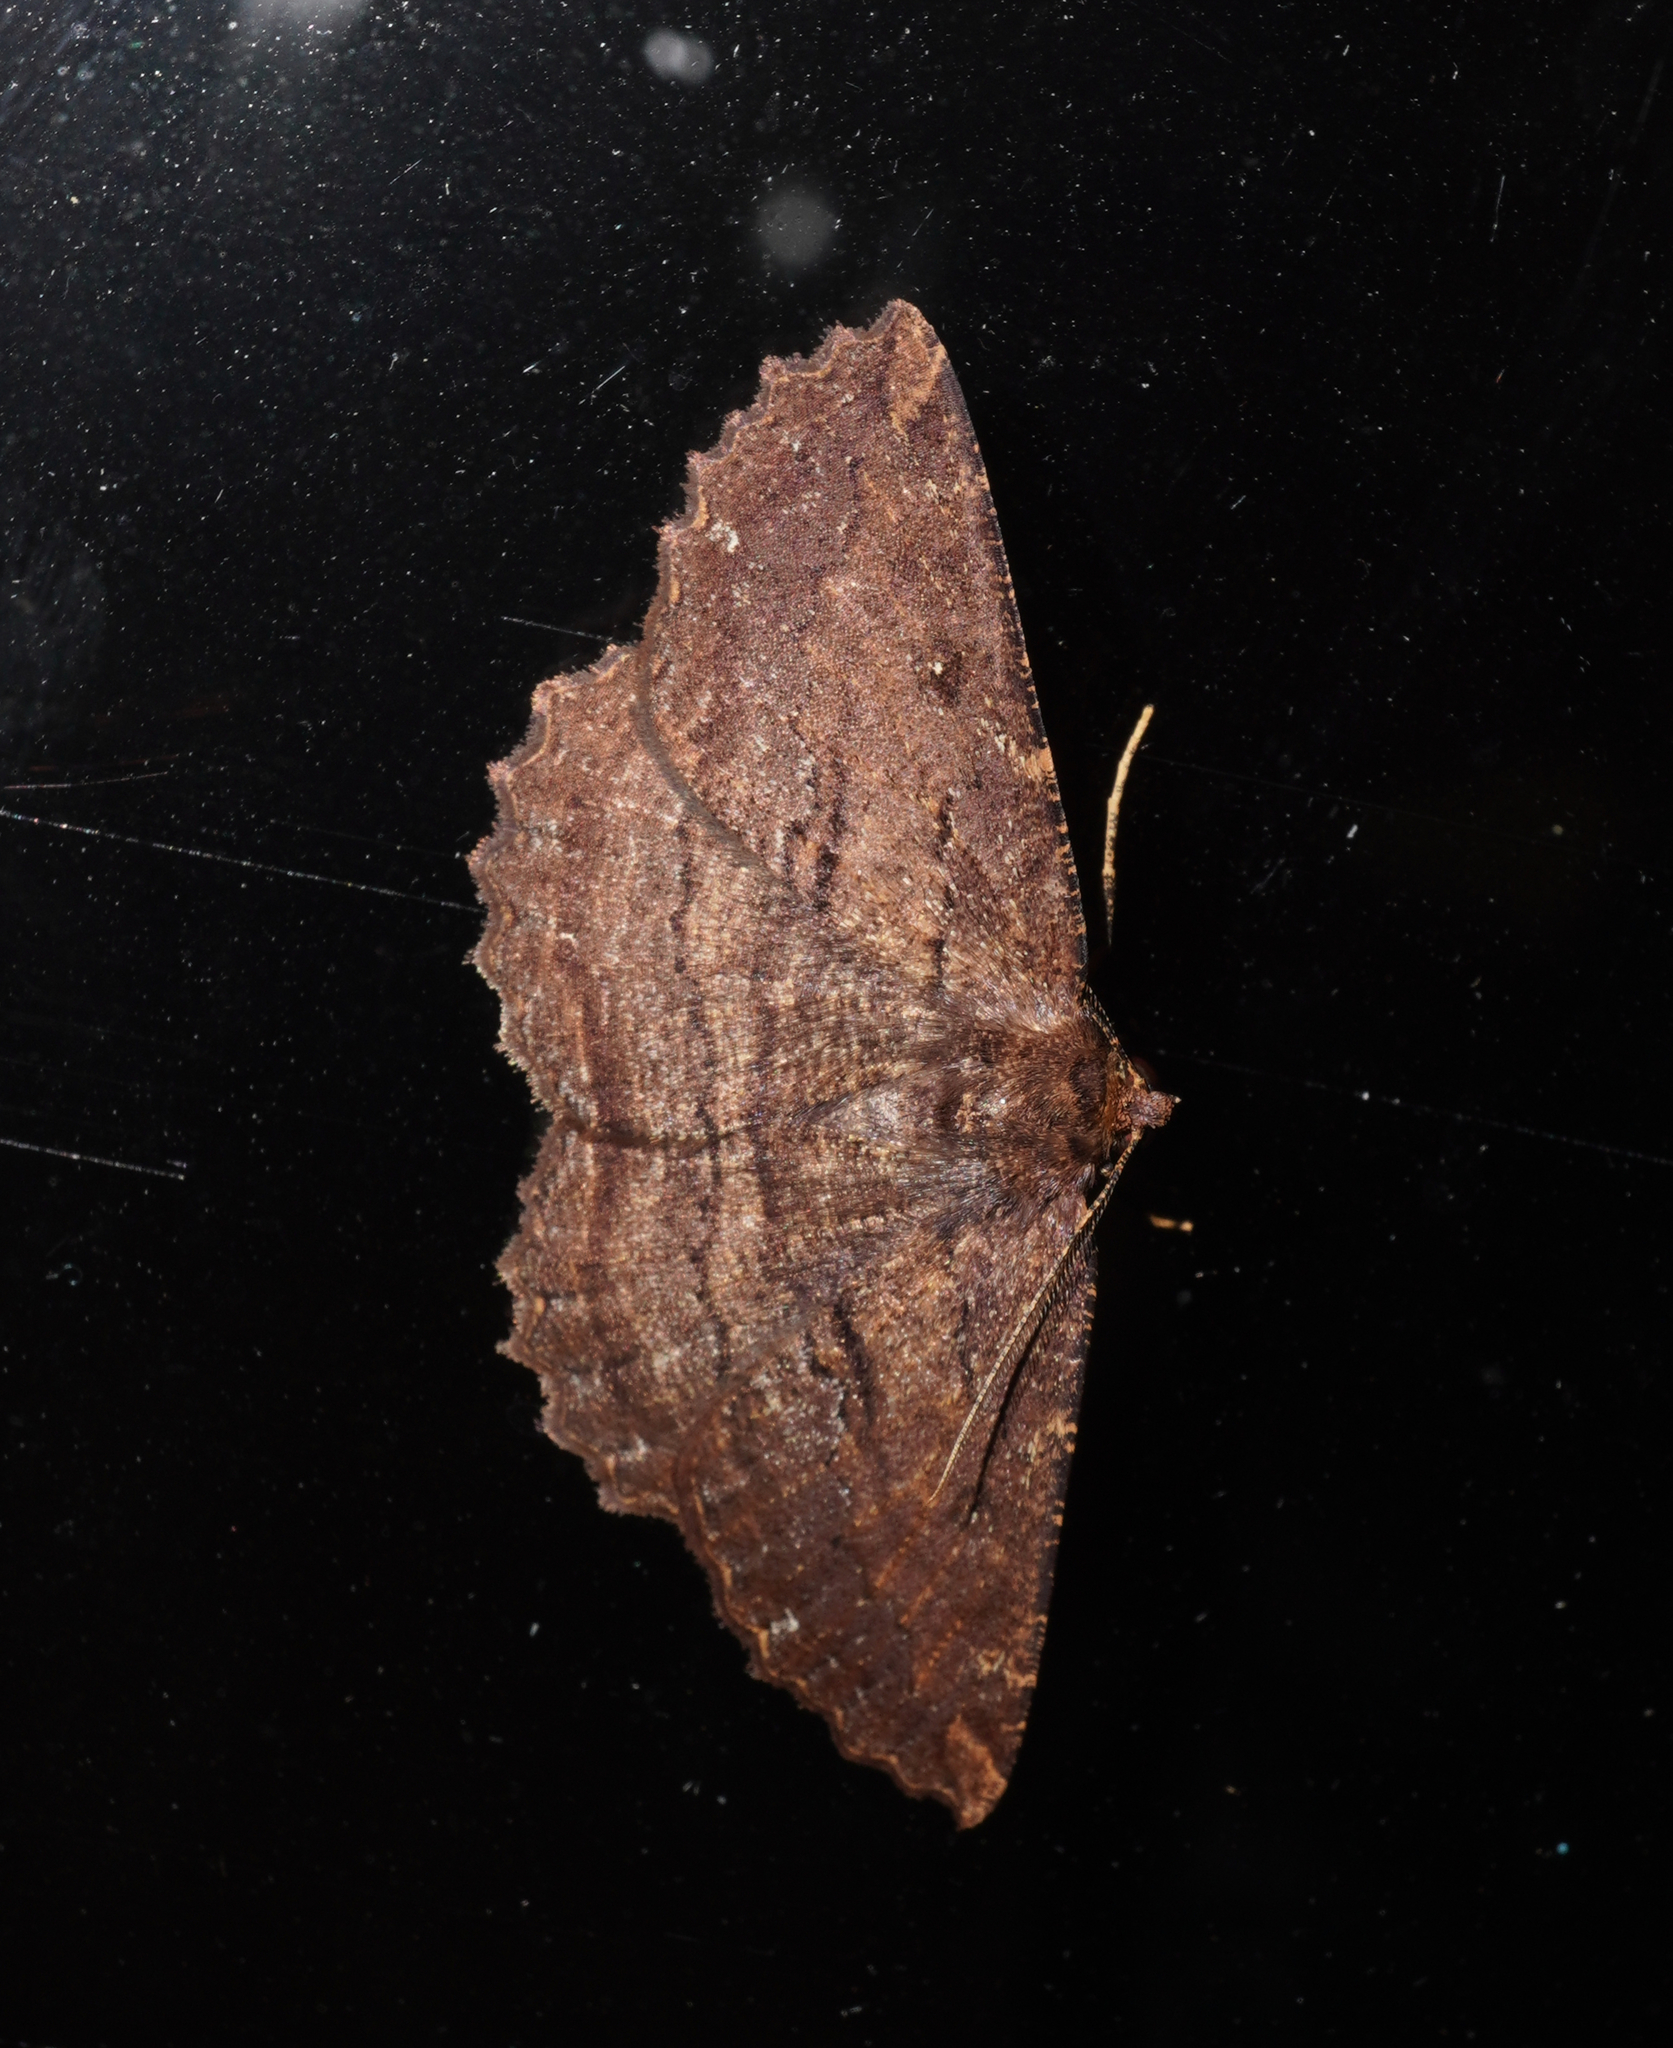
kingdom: Animalia
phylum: Arthropoda
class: Insecta
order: Lepidoptera
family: Geometridae
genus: Gellonia
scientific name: Gellonia dejectaria
